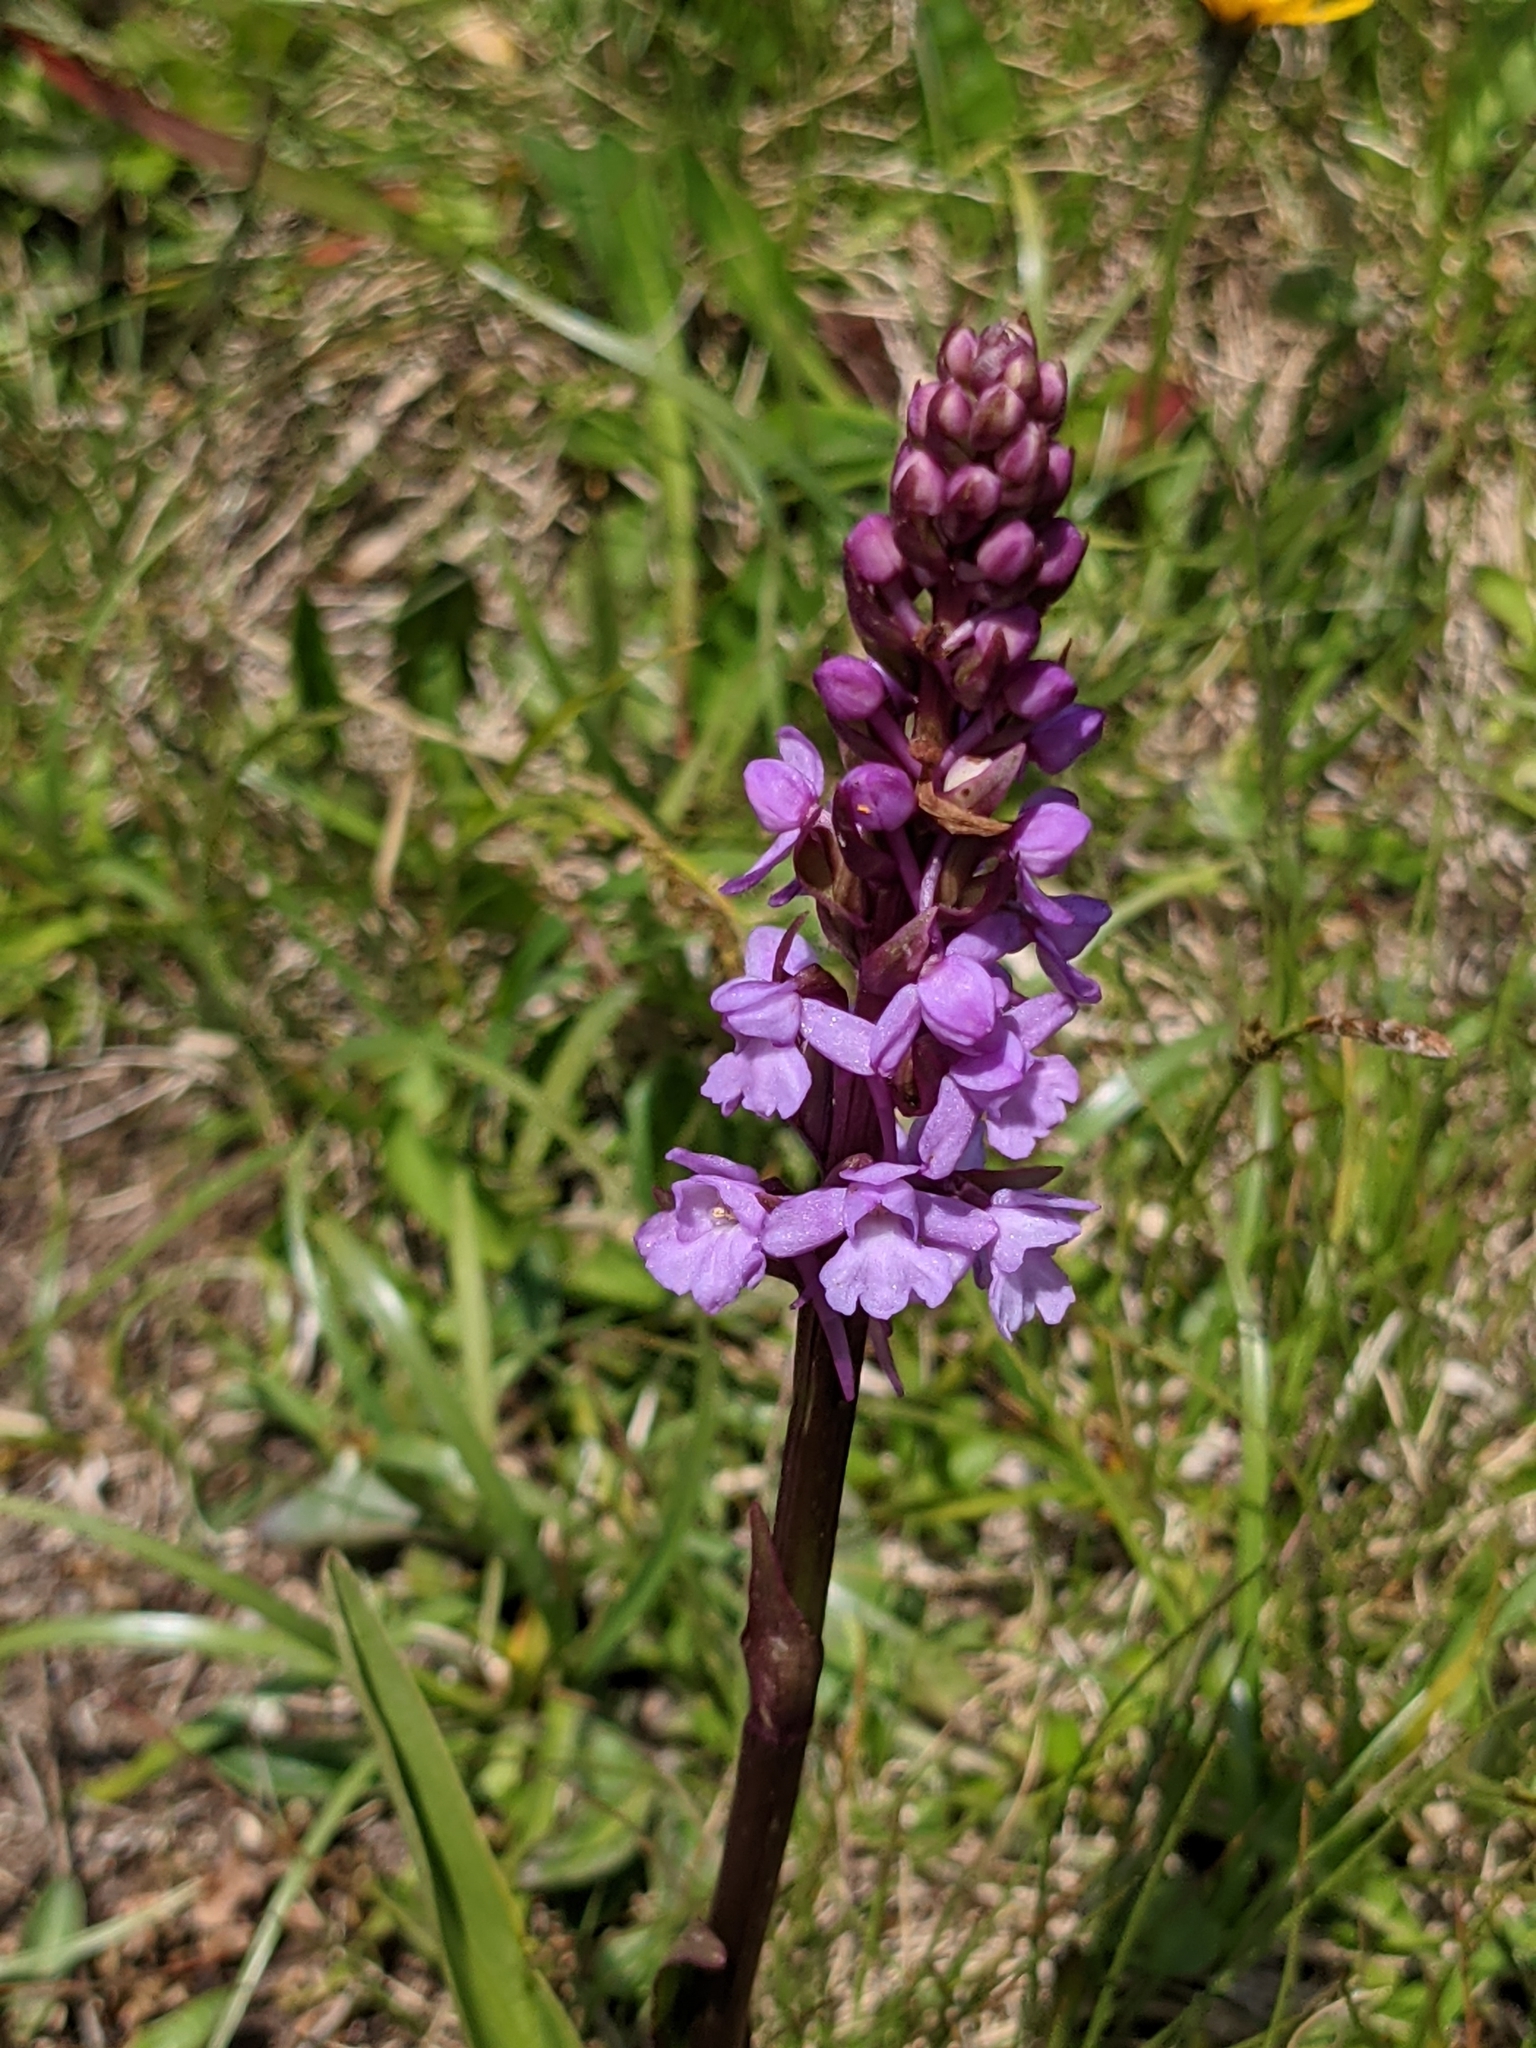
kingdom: Plantae
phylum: Tracheophyta
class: Liliopsida
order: Asparagales
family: Orchidaceae
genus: Gymnadenia
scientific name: Gymnadenia conopsea
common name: Fragrant orchid
